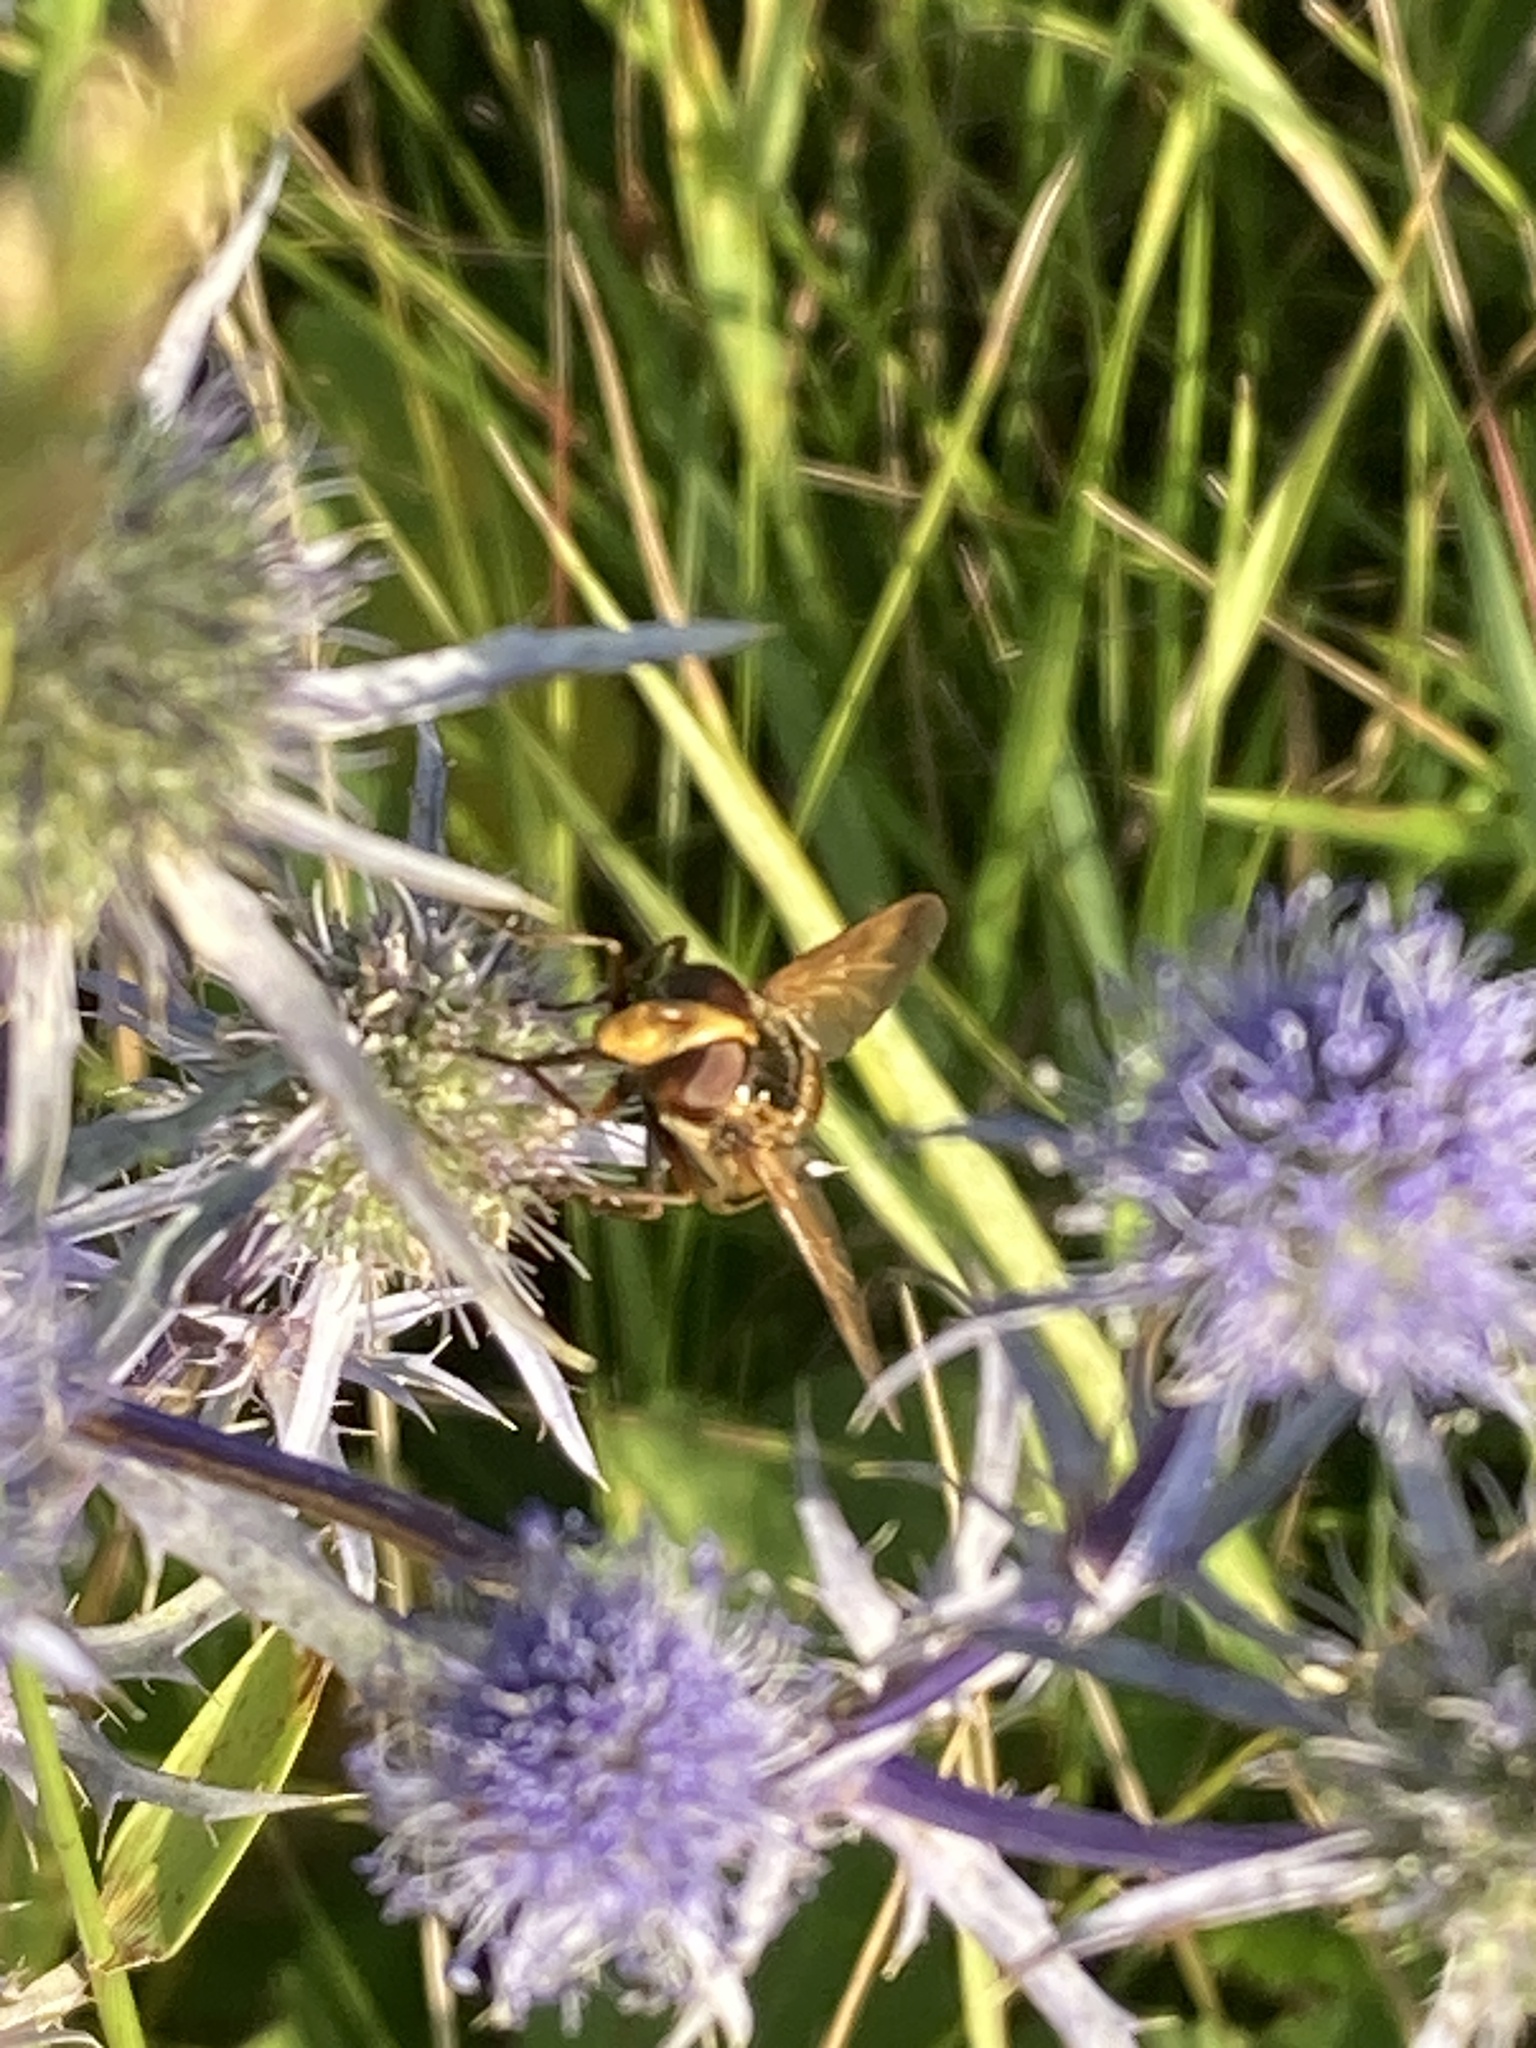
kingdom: Animalia
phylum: Arthropoda
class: Insecta
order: Diptera
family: Syrphidae
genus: Volucella
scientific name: Volucella inanis
